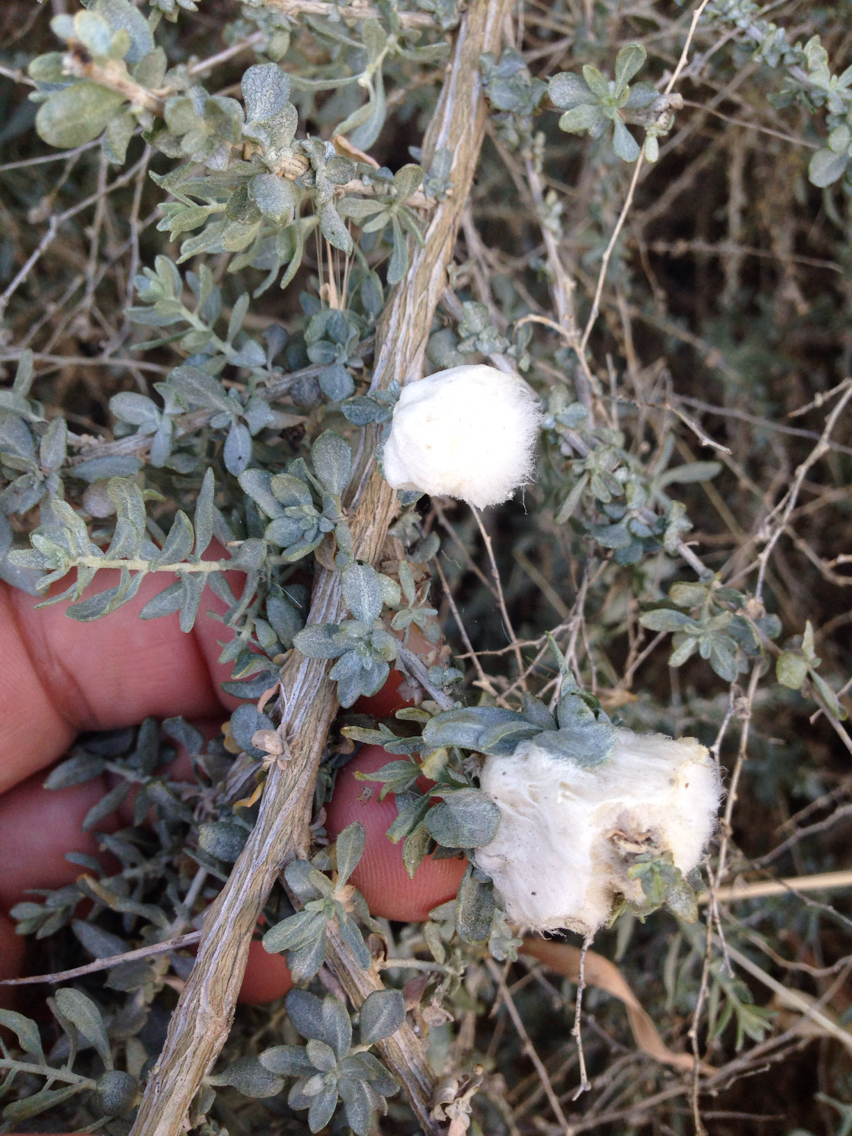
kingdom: Animalia
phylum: Arthropoda
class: Insecta
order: Diptera
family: Cecidomyiidae
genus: Asphondylia
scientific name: Asphondylia floccosa
